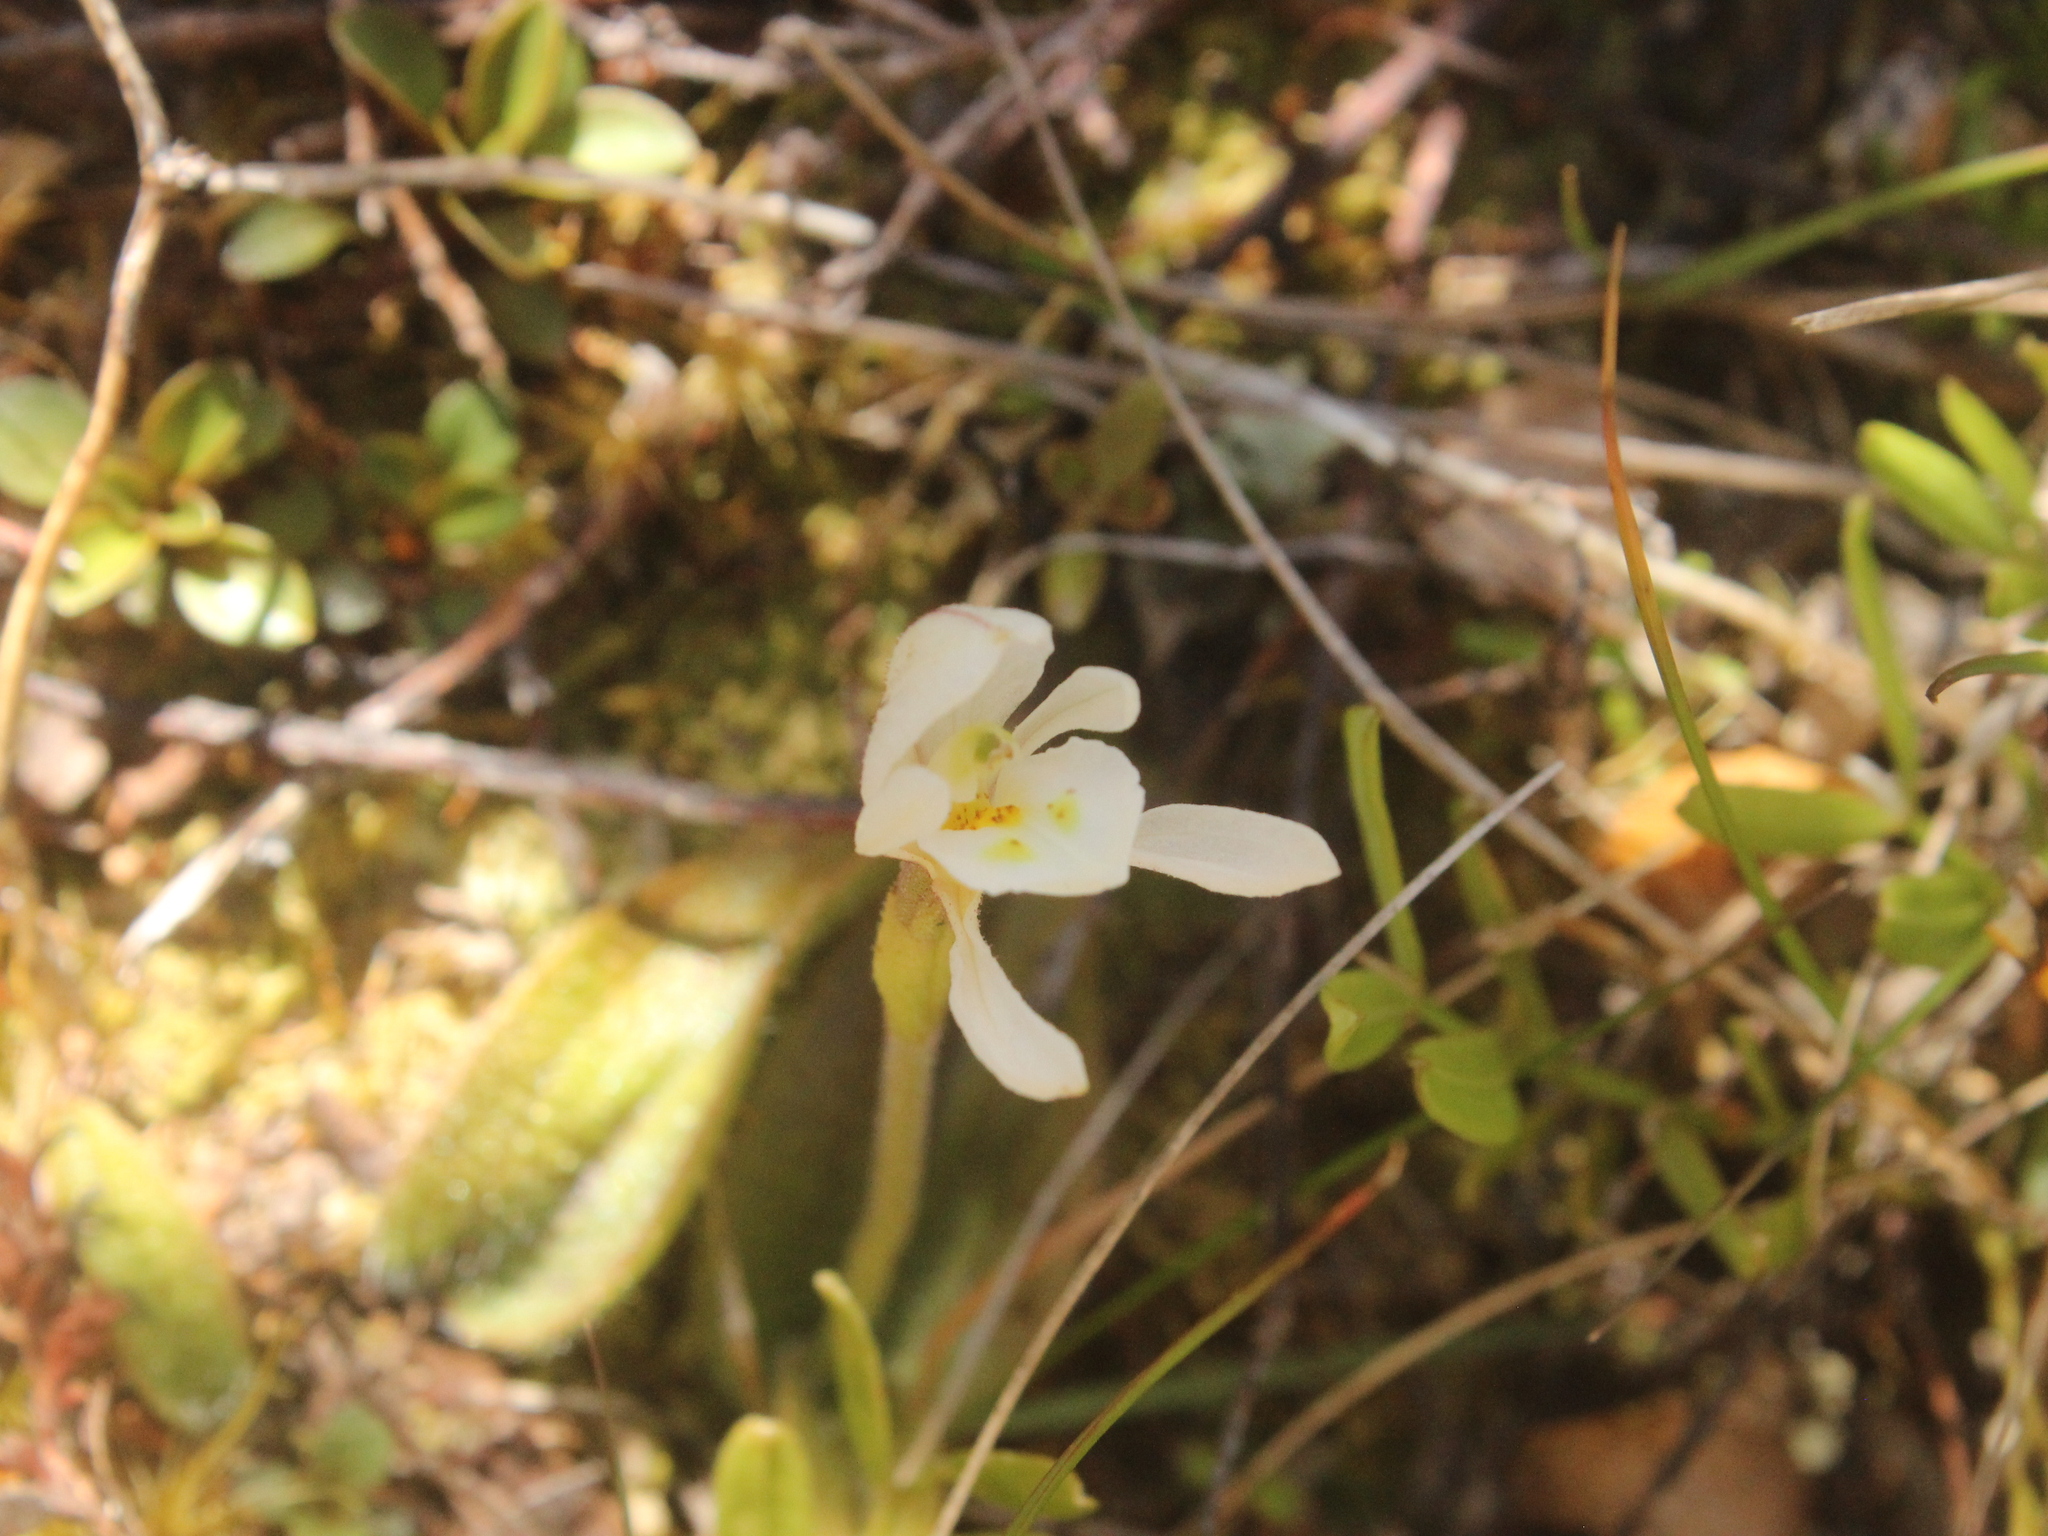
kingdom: Plantae
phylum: Tracheophyta
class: Liliopsida
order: Asparagales
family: Orchidaceae
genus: Aporostylis
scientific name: Aporostylis bifolia
